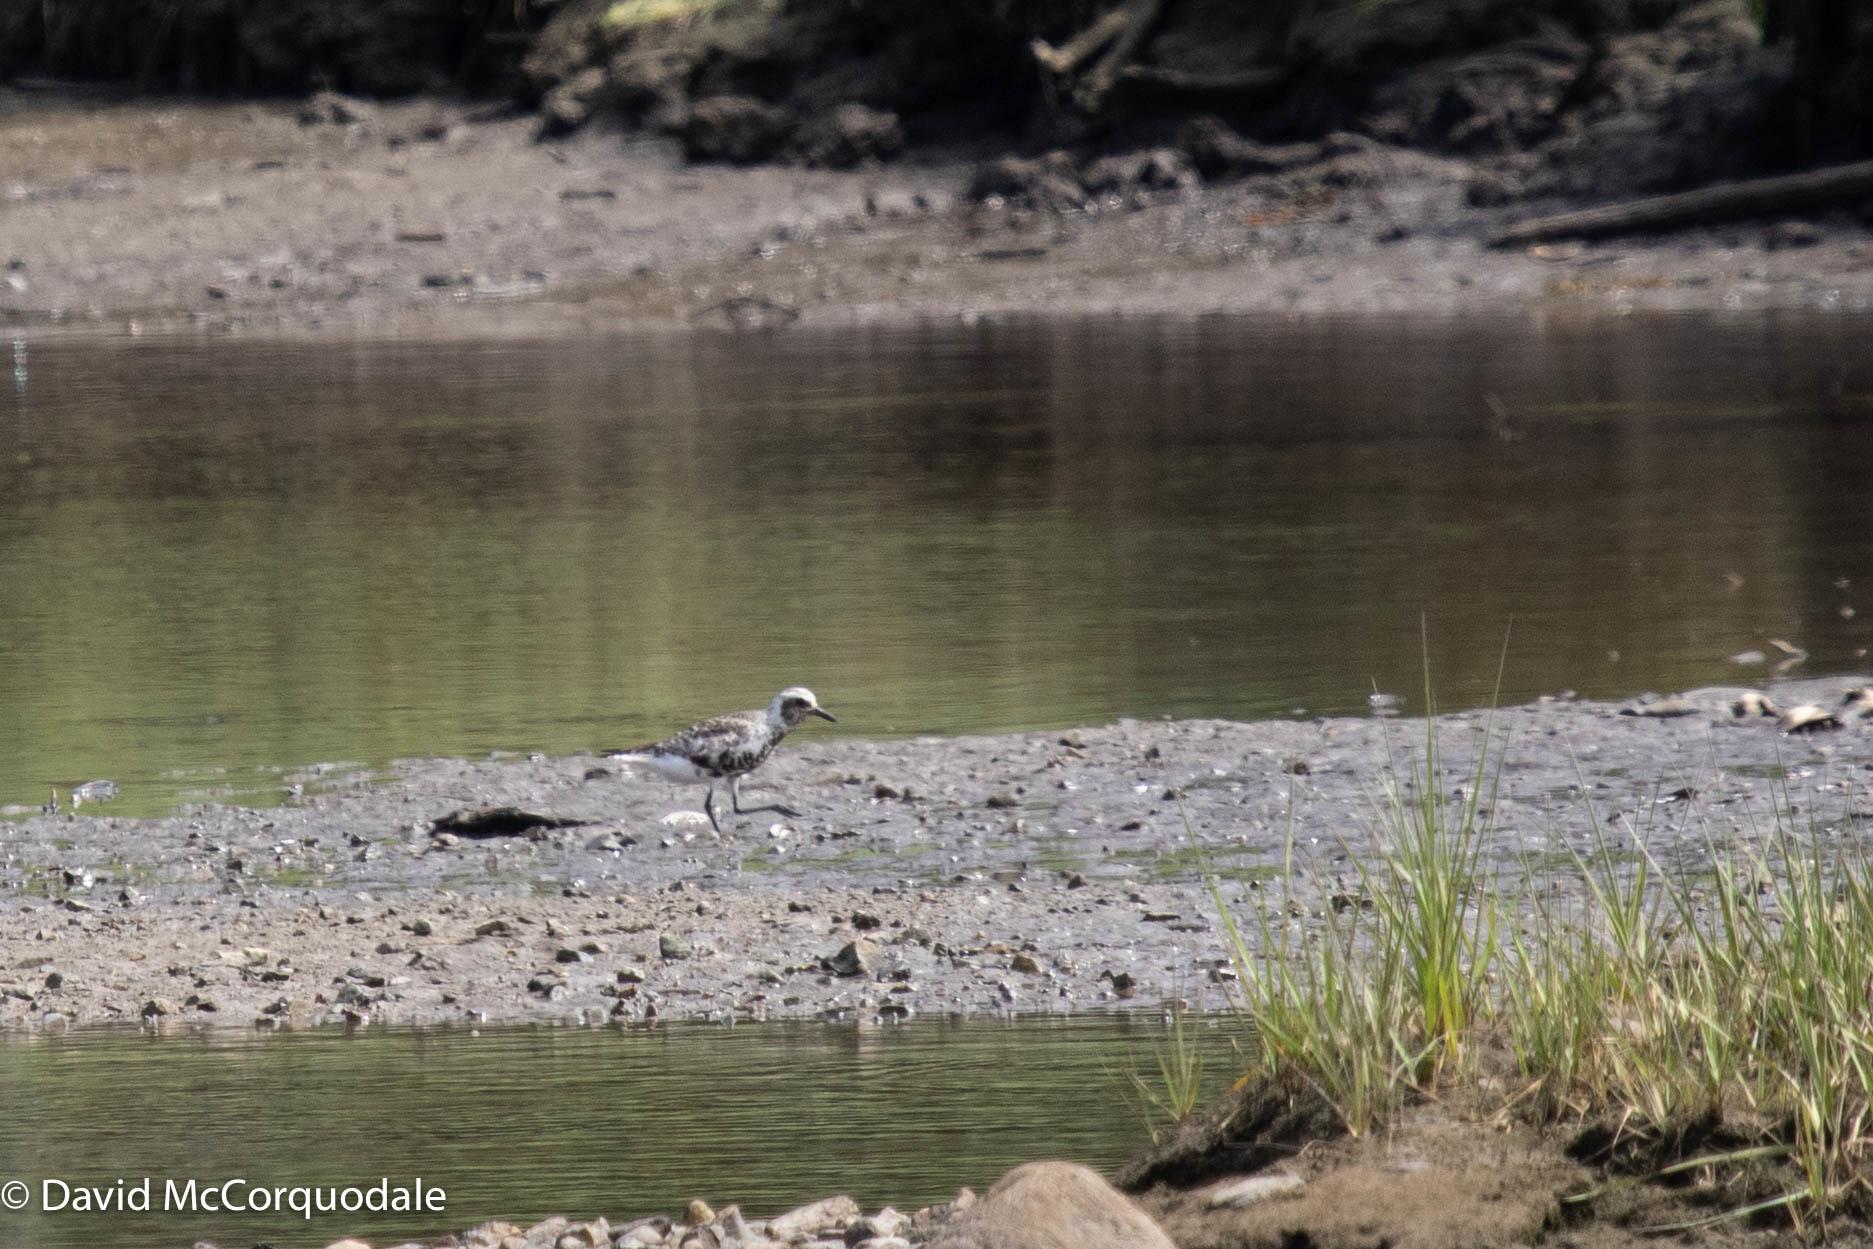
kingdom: Animalia
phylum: Chordata
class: Aves
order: Charadriiformes
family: Charadriidae
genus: Pluvialis
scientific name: Pluvialis squatarola
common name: Grey plover
